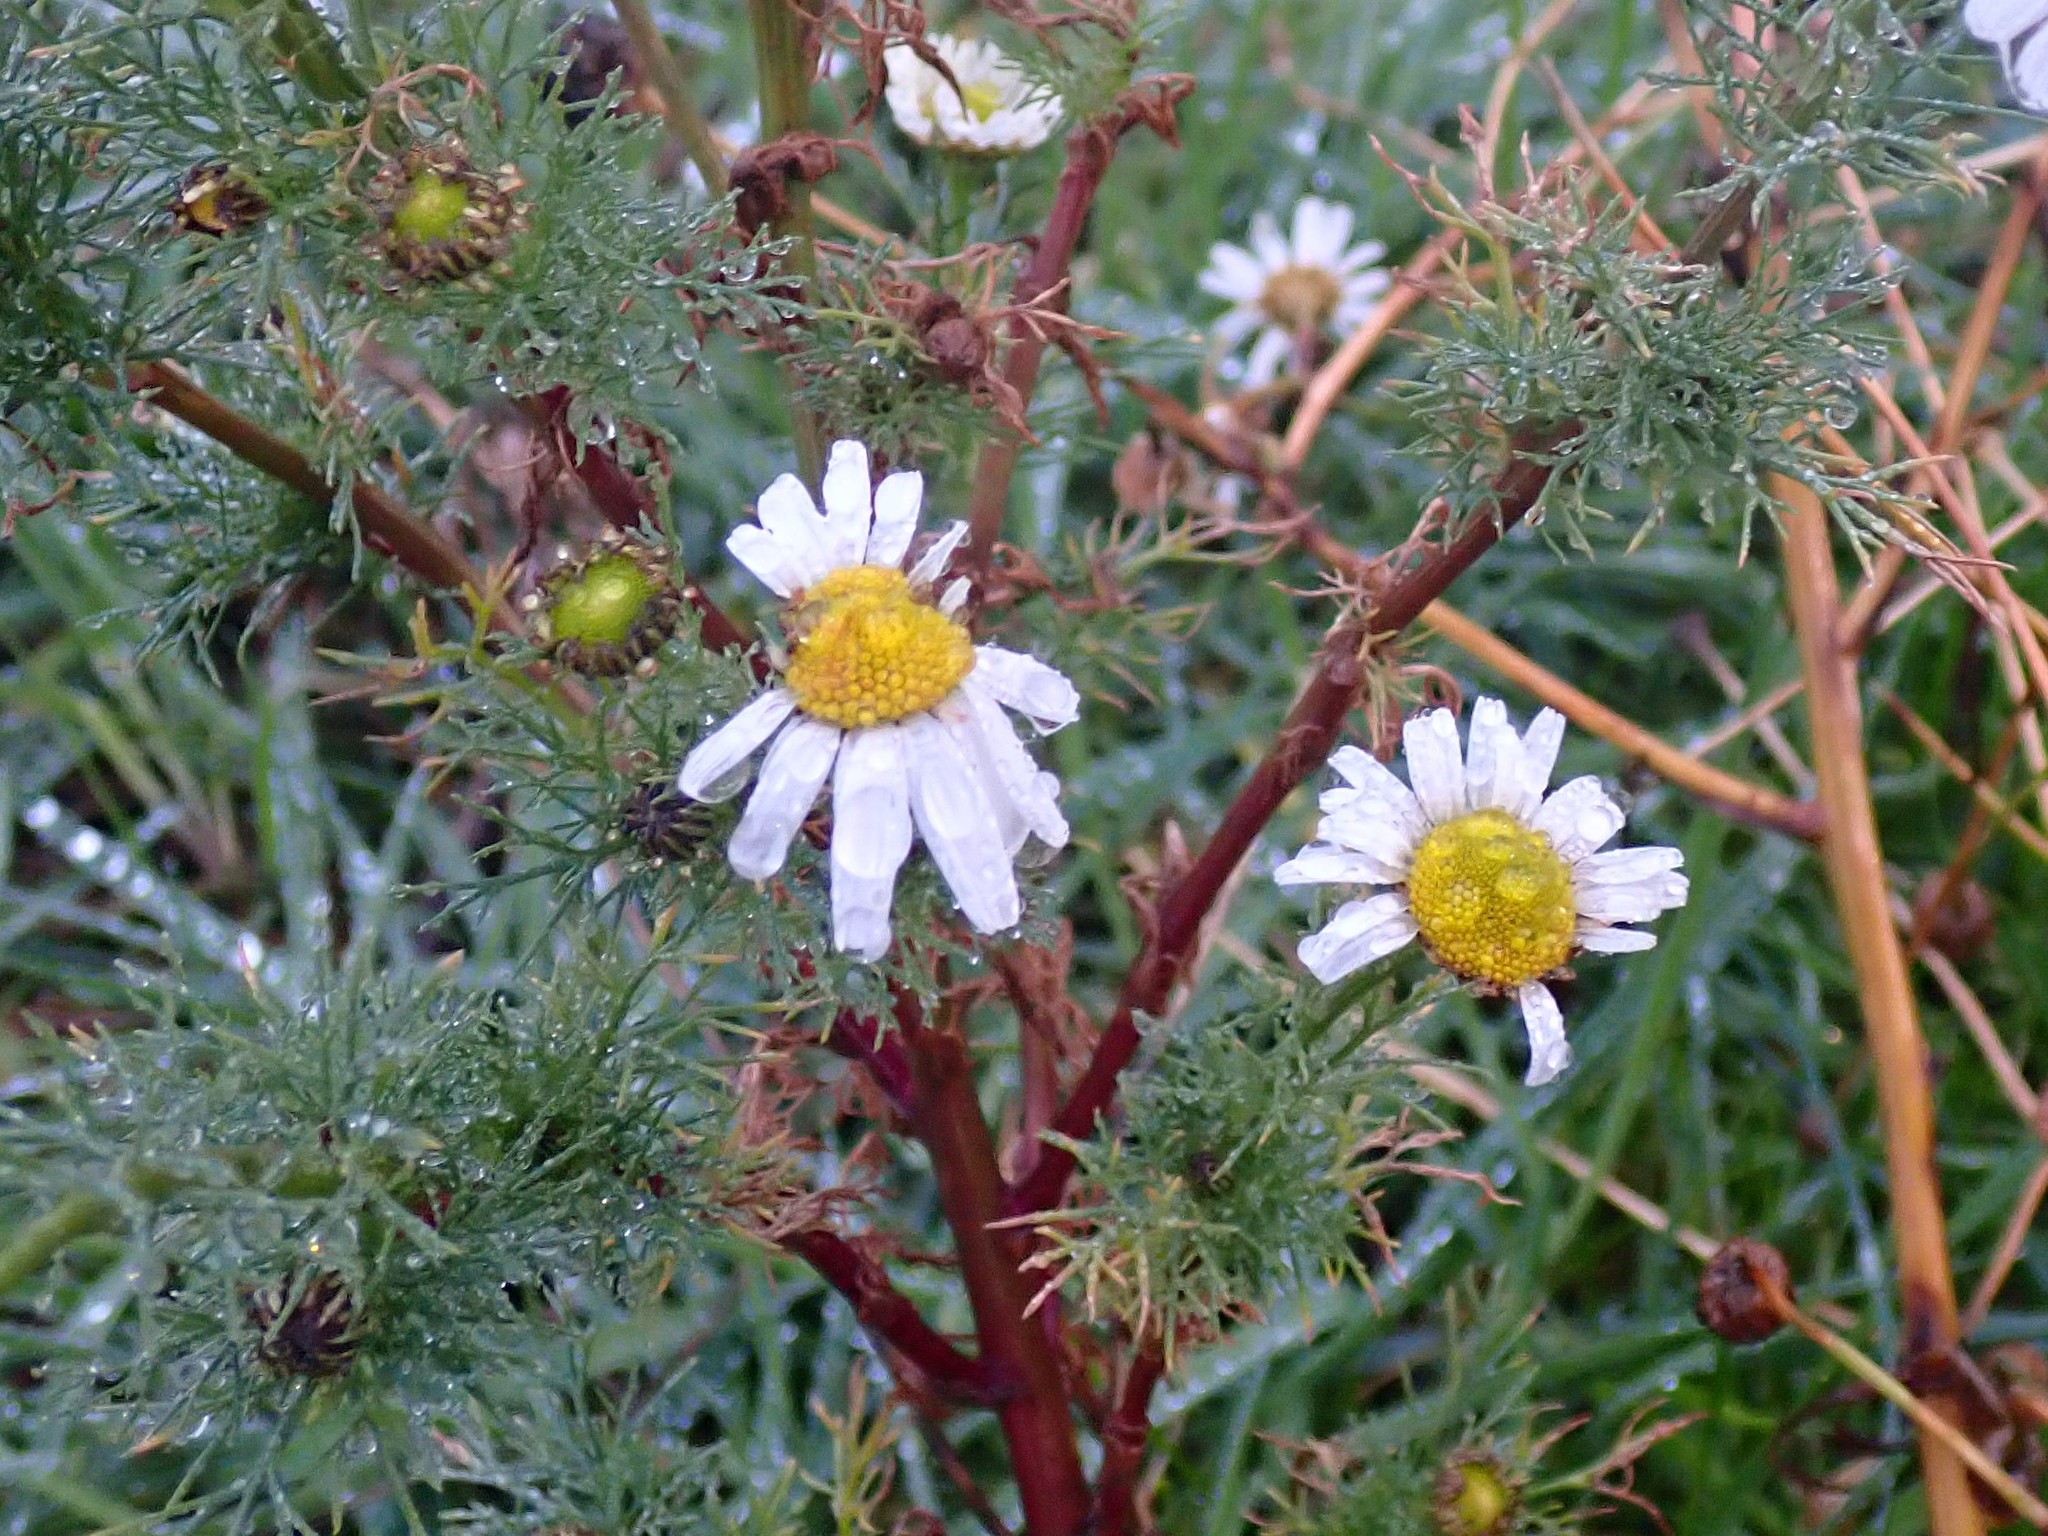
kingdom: Plantae
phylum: Tracheophyta
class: Magnoliopsida
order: Asterales
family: Asteraceae
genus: Tripleurospermum
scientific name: Tripleurospermum inodorum
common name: Scentless mayweed
